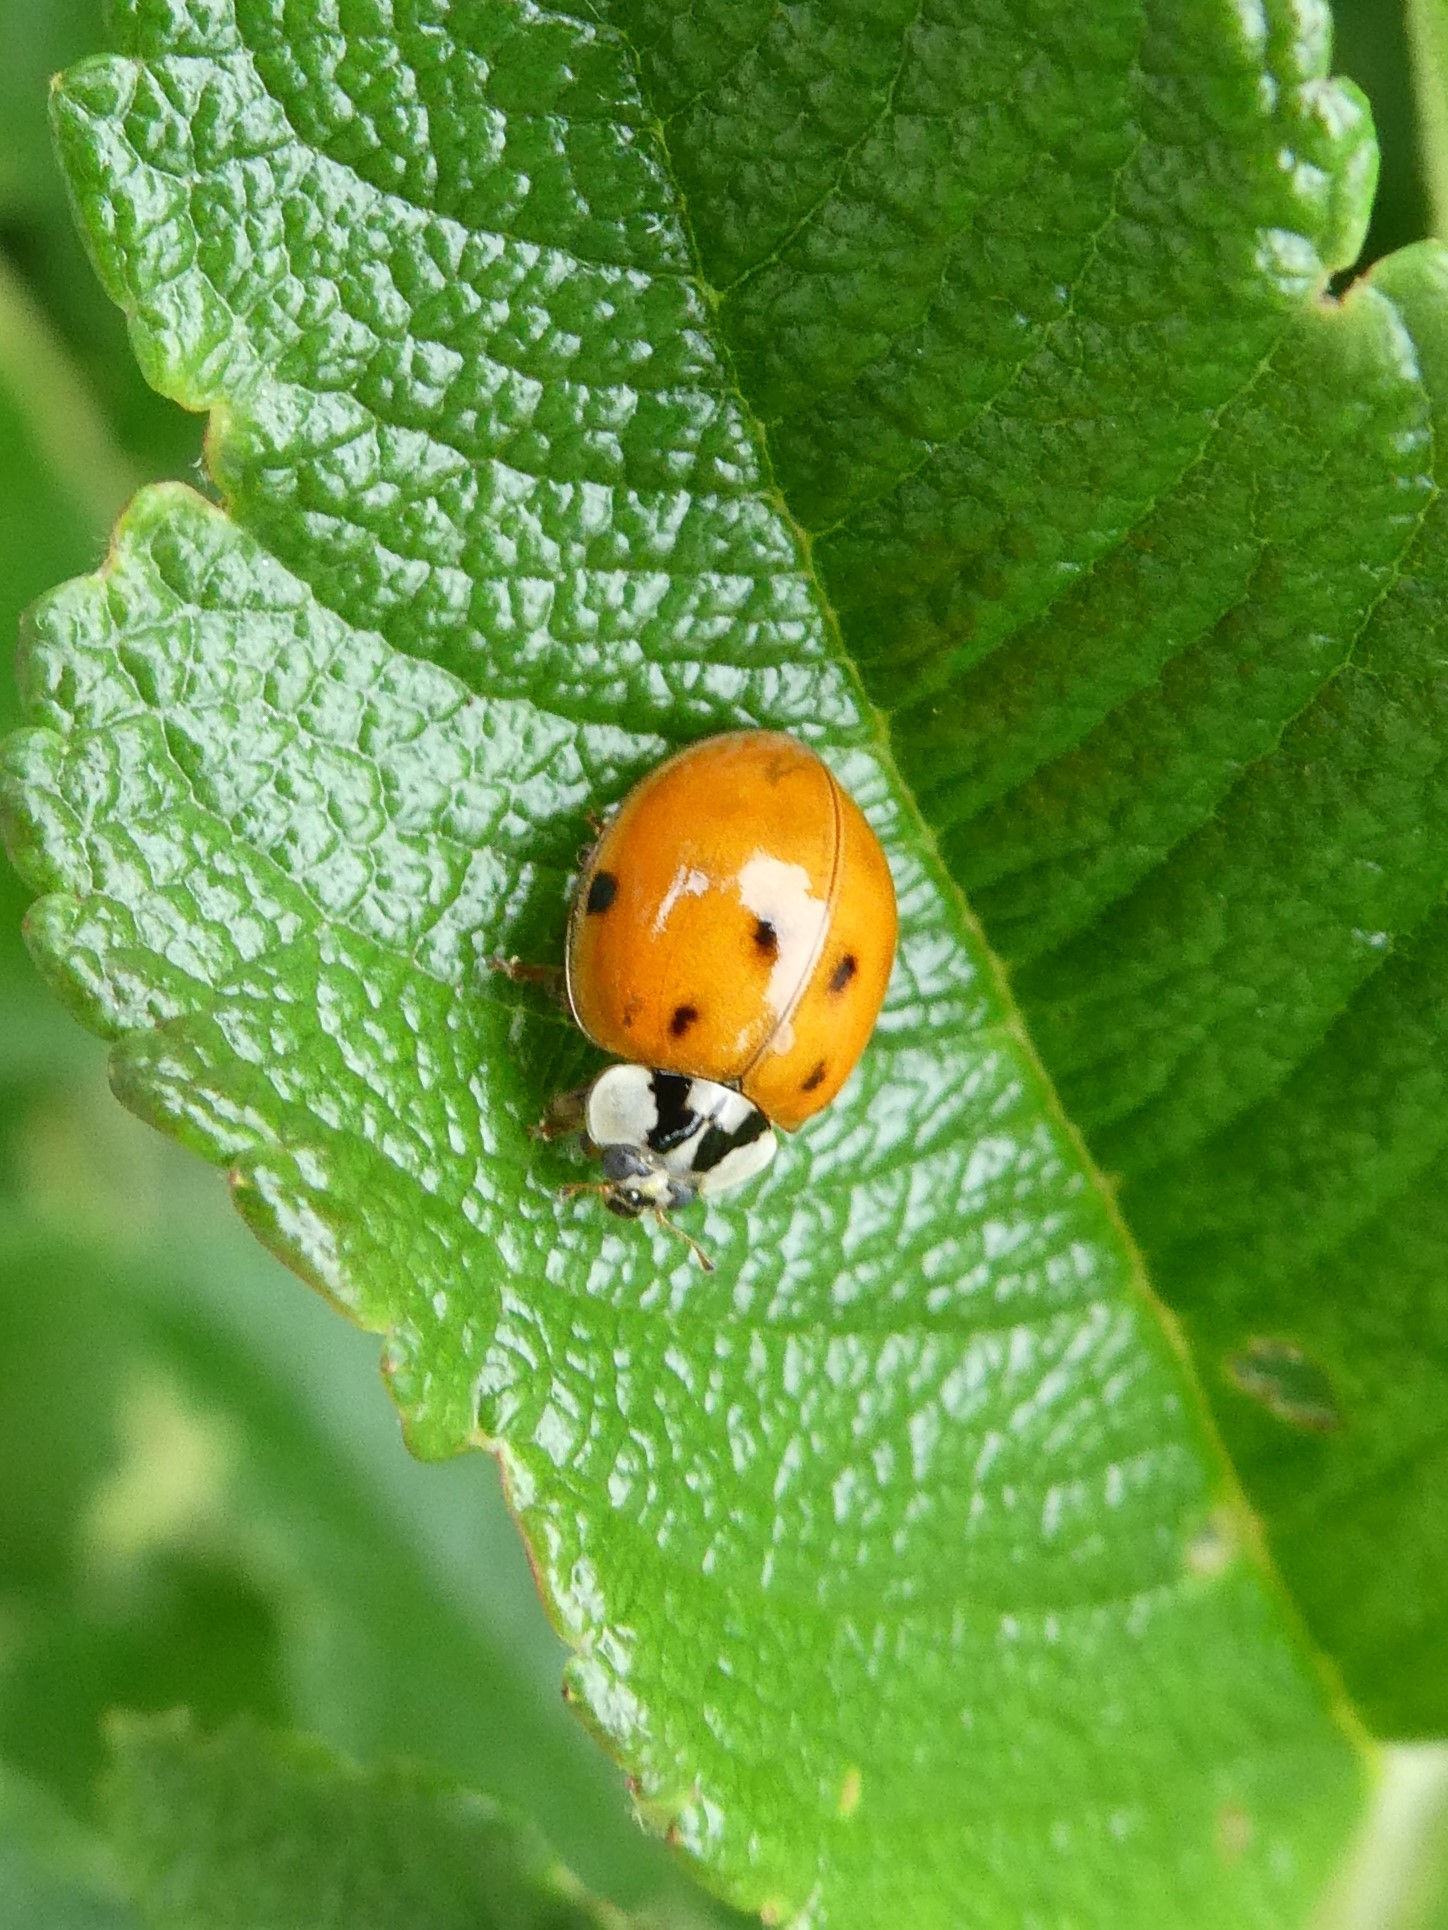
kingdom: Animalia
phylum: Arthropoda
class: Insecta
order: Coleoptera
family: Coccinellidae
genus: Harmonia
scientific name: Harmonia axyridis
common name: Harlequin ladybird
